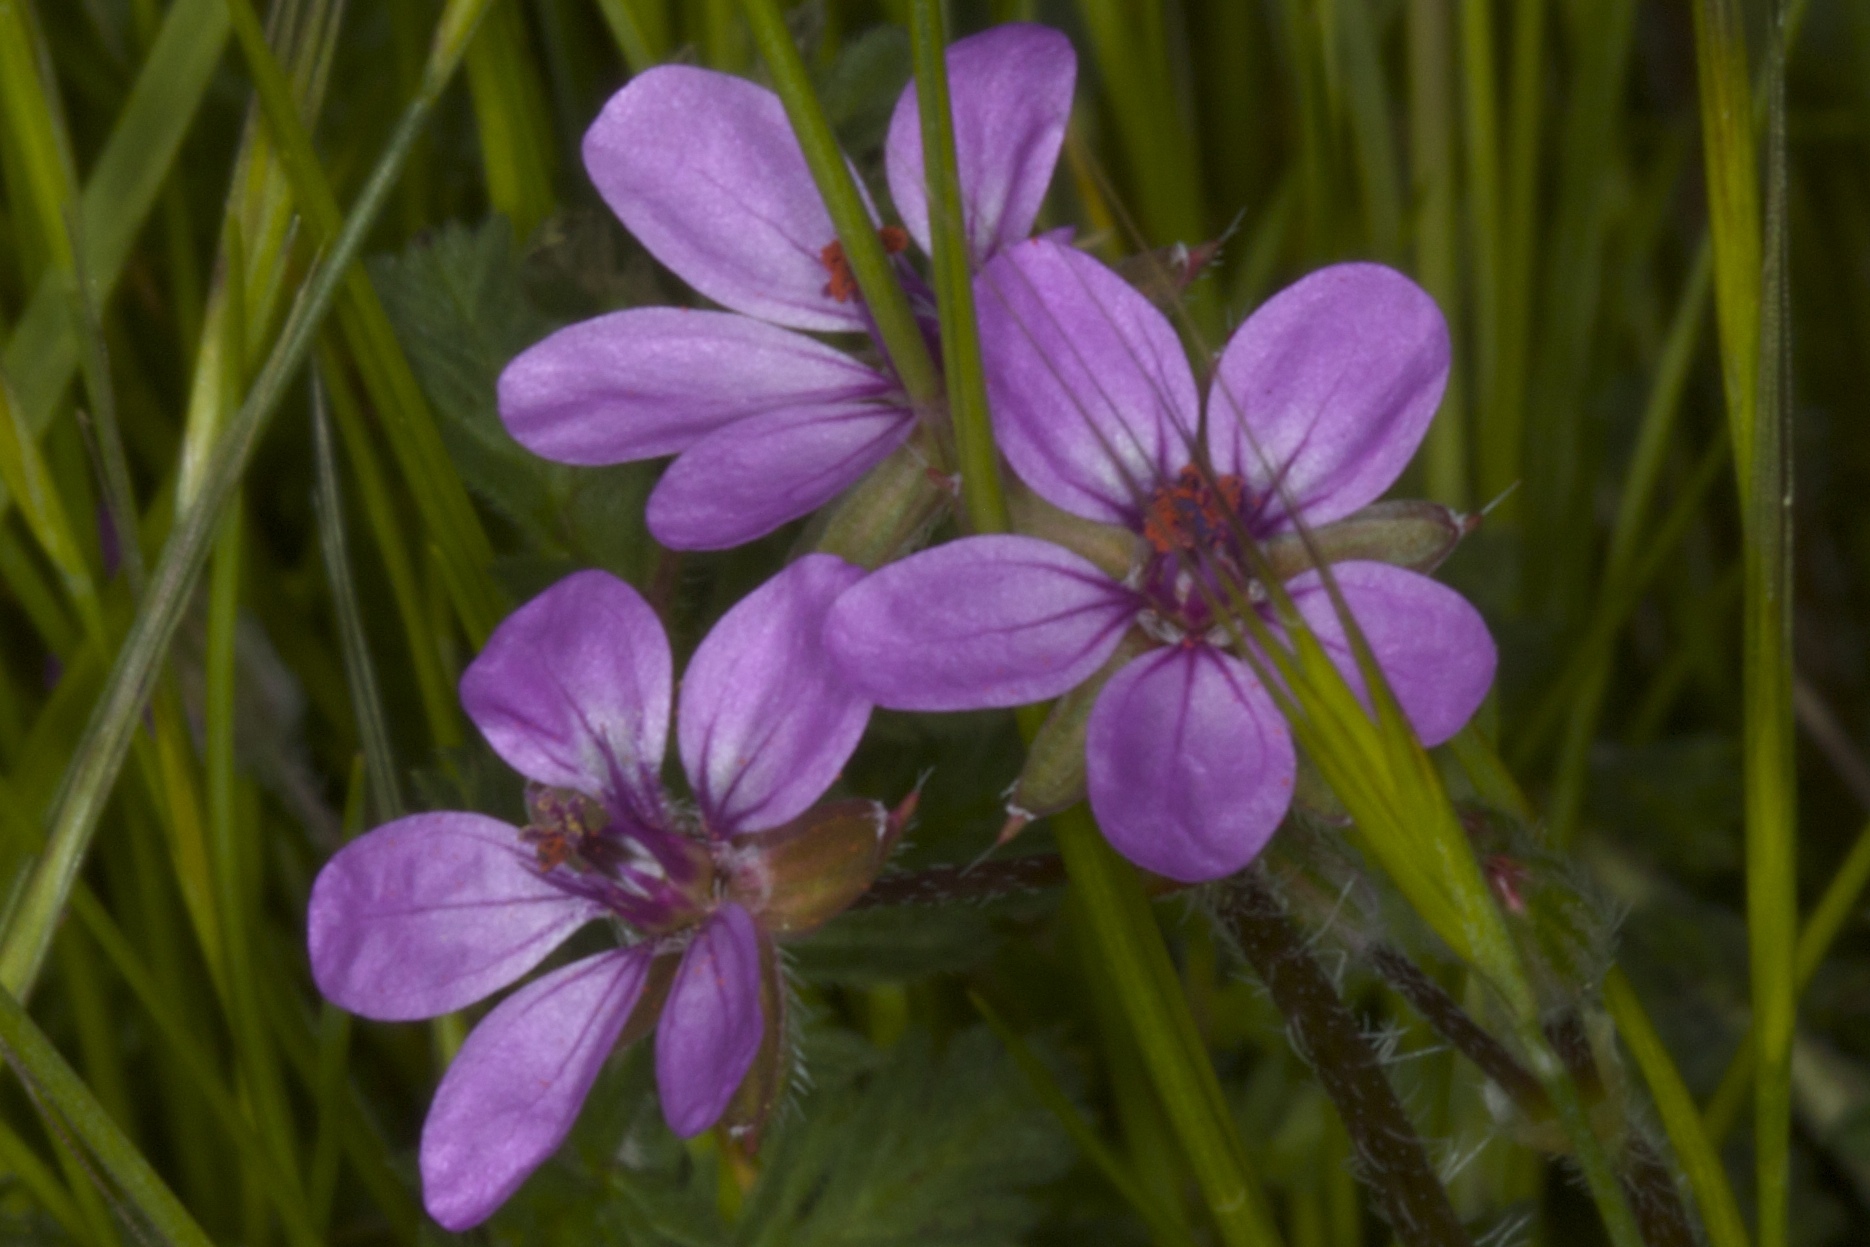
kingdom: Plantae
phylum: Tracheophyta
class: Magnoliopsida
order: Geraniales
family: Geraniaceae
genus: Erodium
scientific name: Erodium cicutarium
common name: Common stork's-bill
